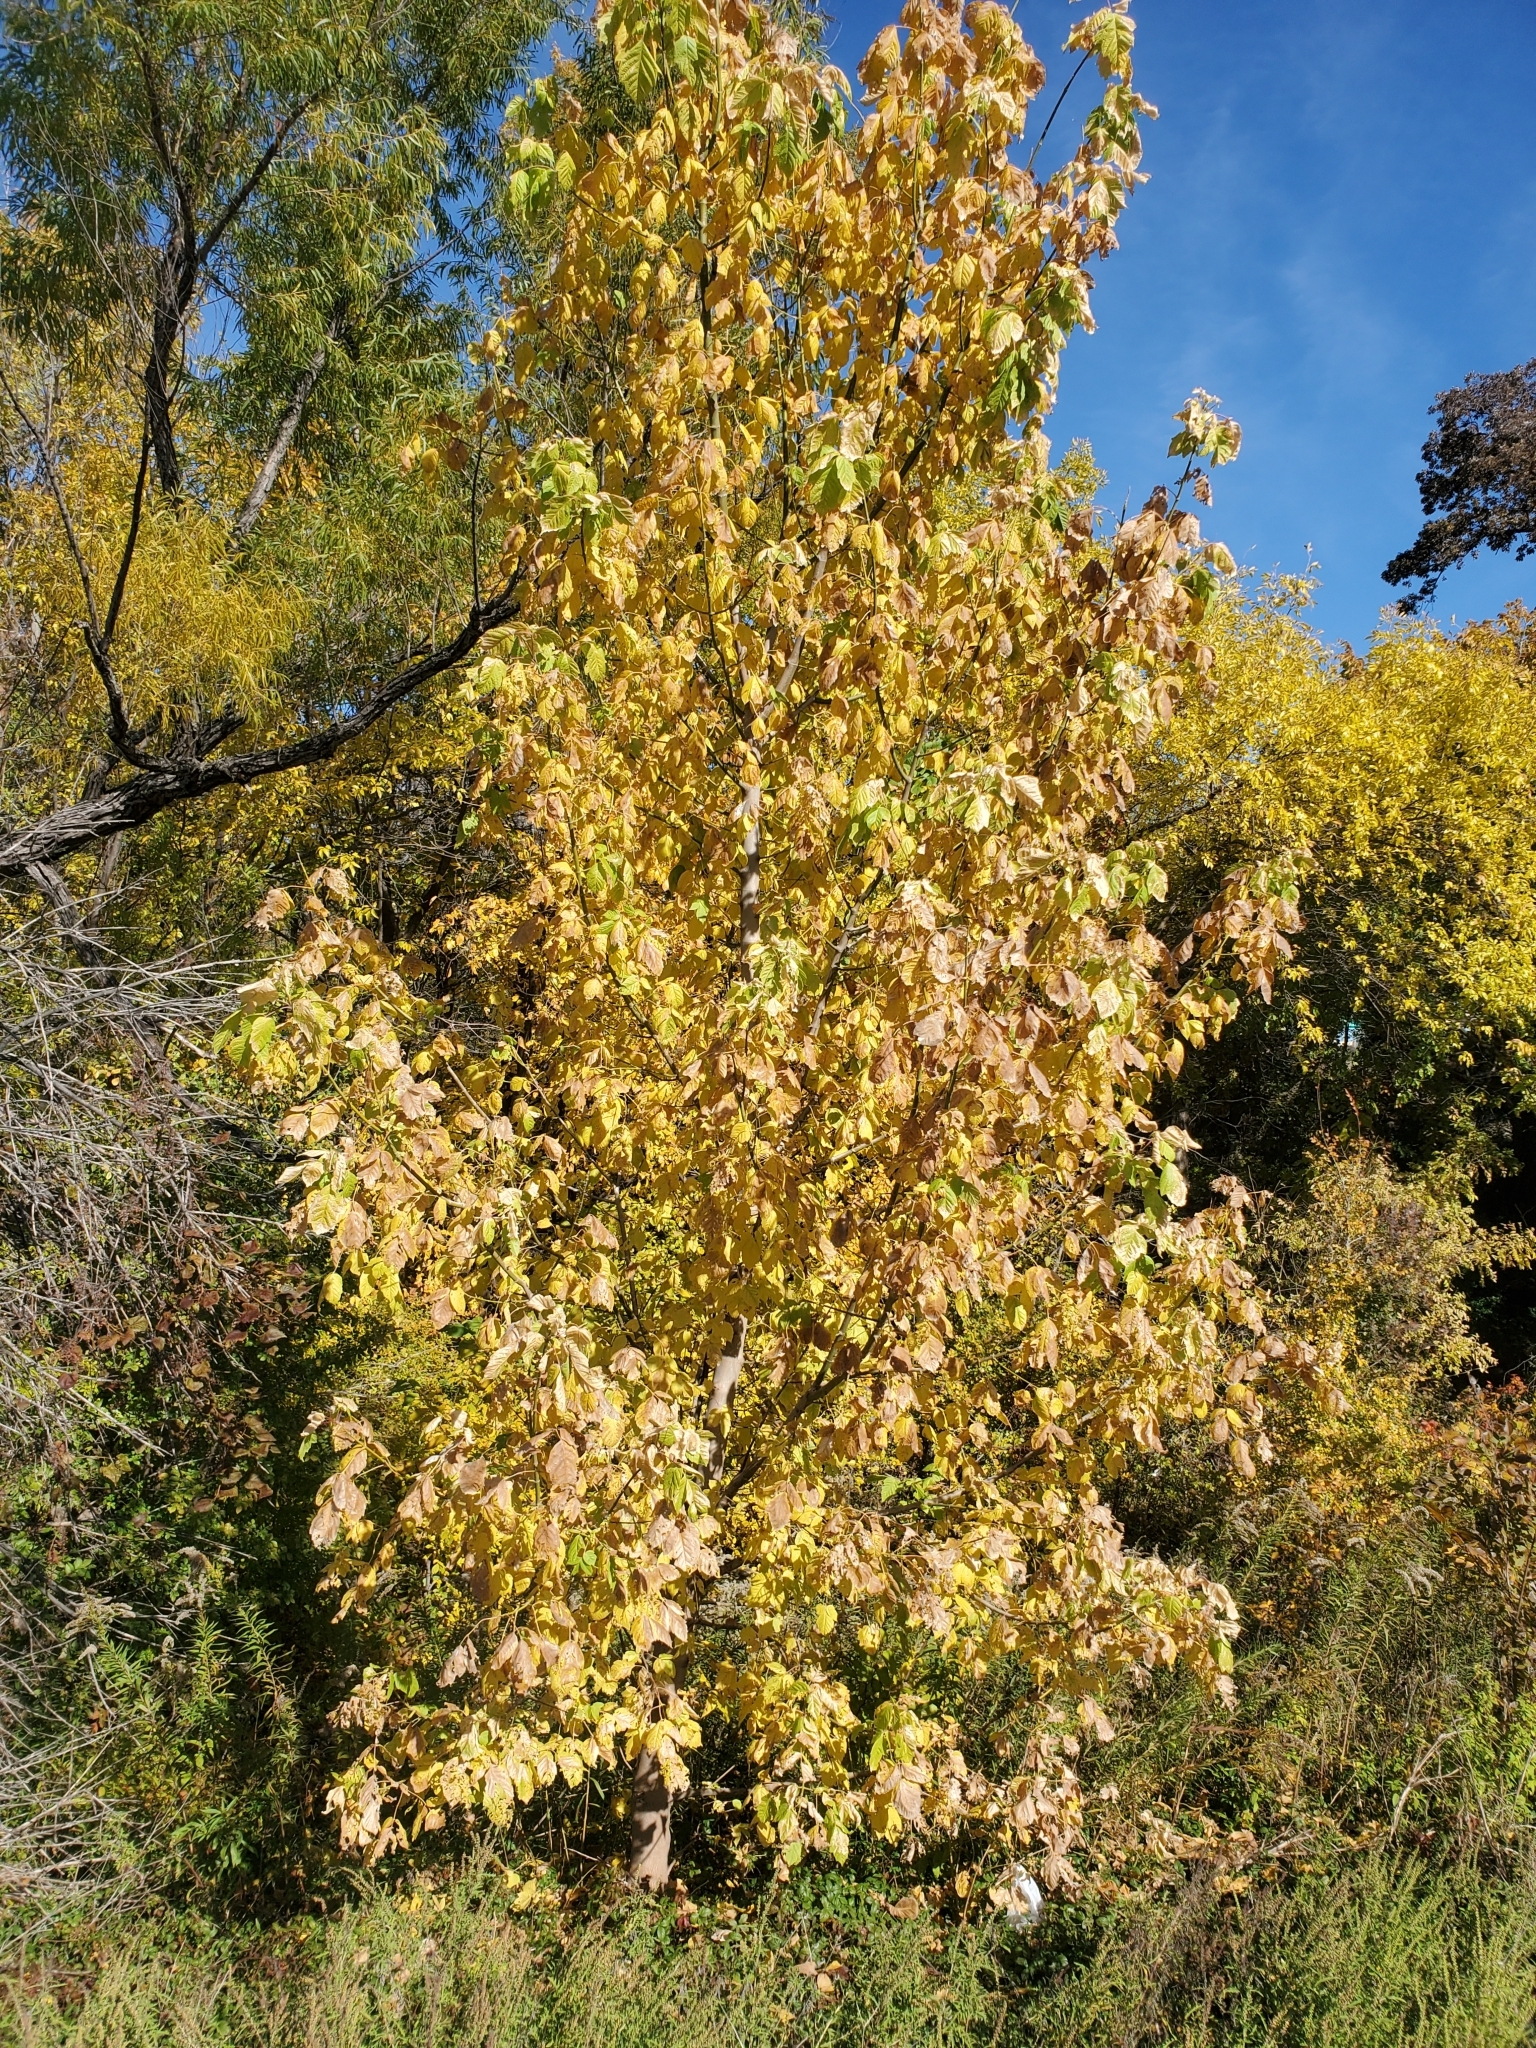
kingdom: Plantae
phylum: Tracheophyta
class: Magnoliopsida
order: Sapindales
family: Sapindaceae
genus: Acer
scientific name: Acer negundo
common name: Ashleaf maple
